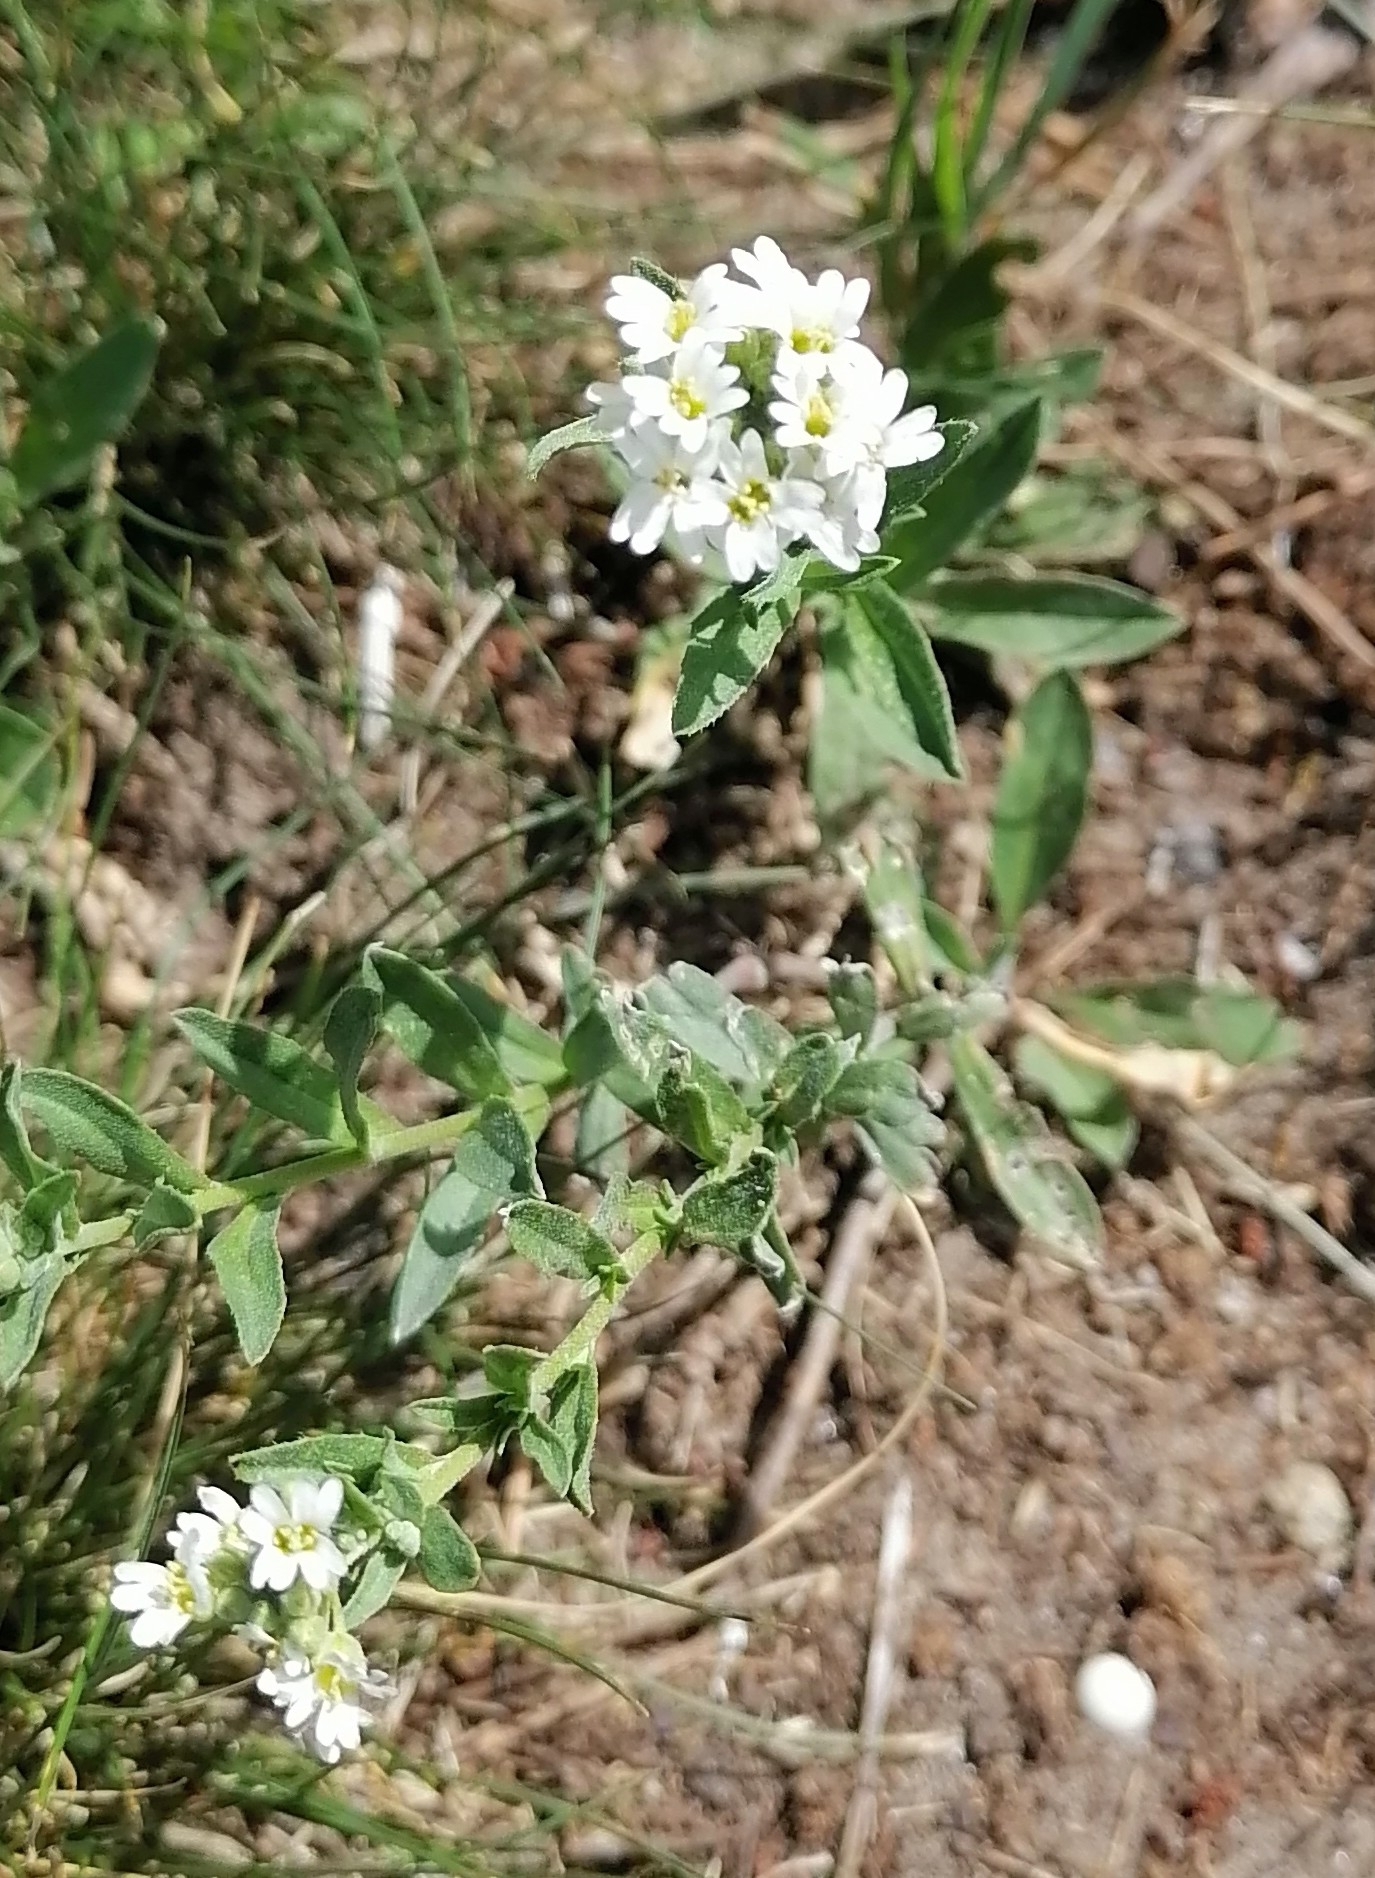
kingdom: Plantae
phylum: Tracheophyta
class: Magnoliopsida
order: Brassicales
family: Brassicaceae
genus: Berteroa
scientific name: Berteroa incana
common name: Hoary alison
